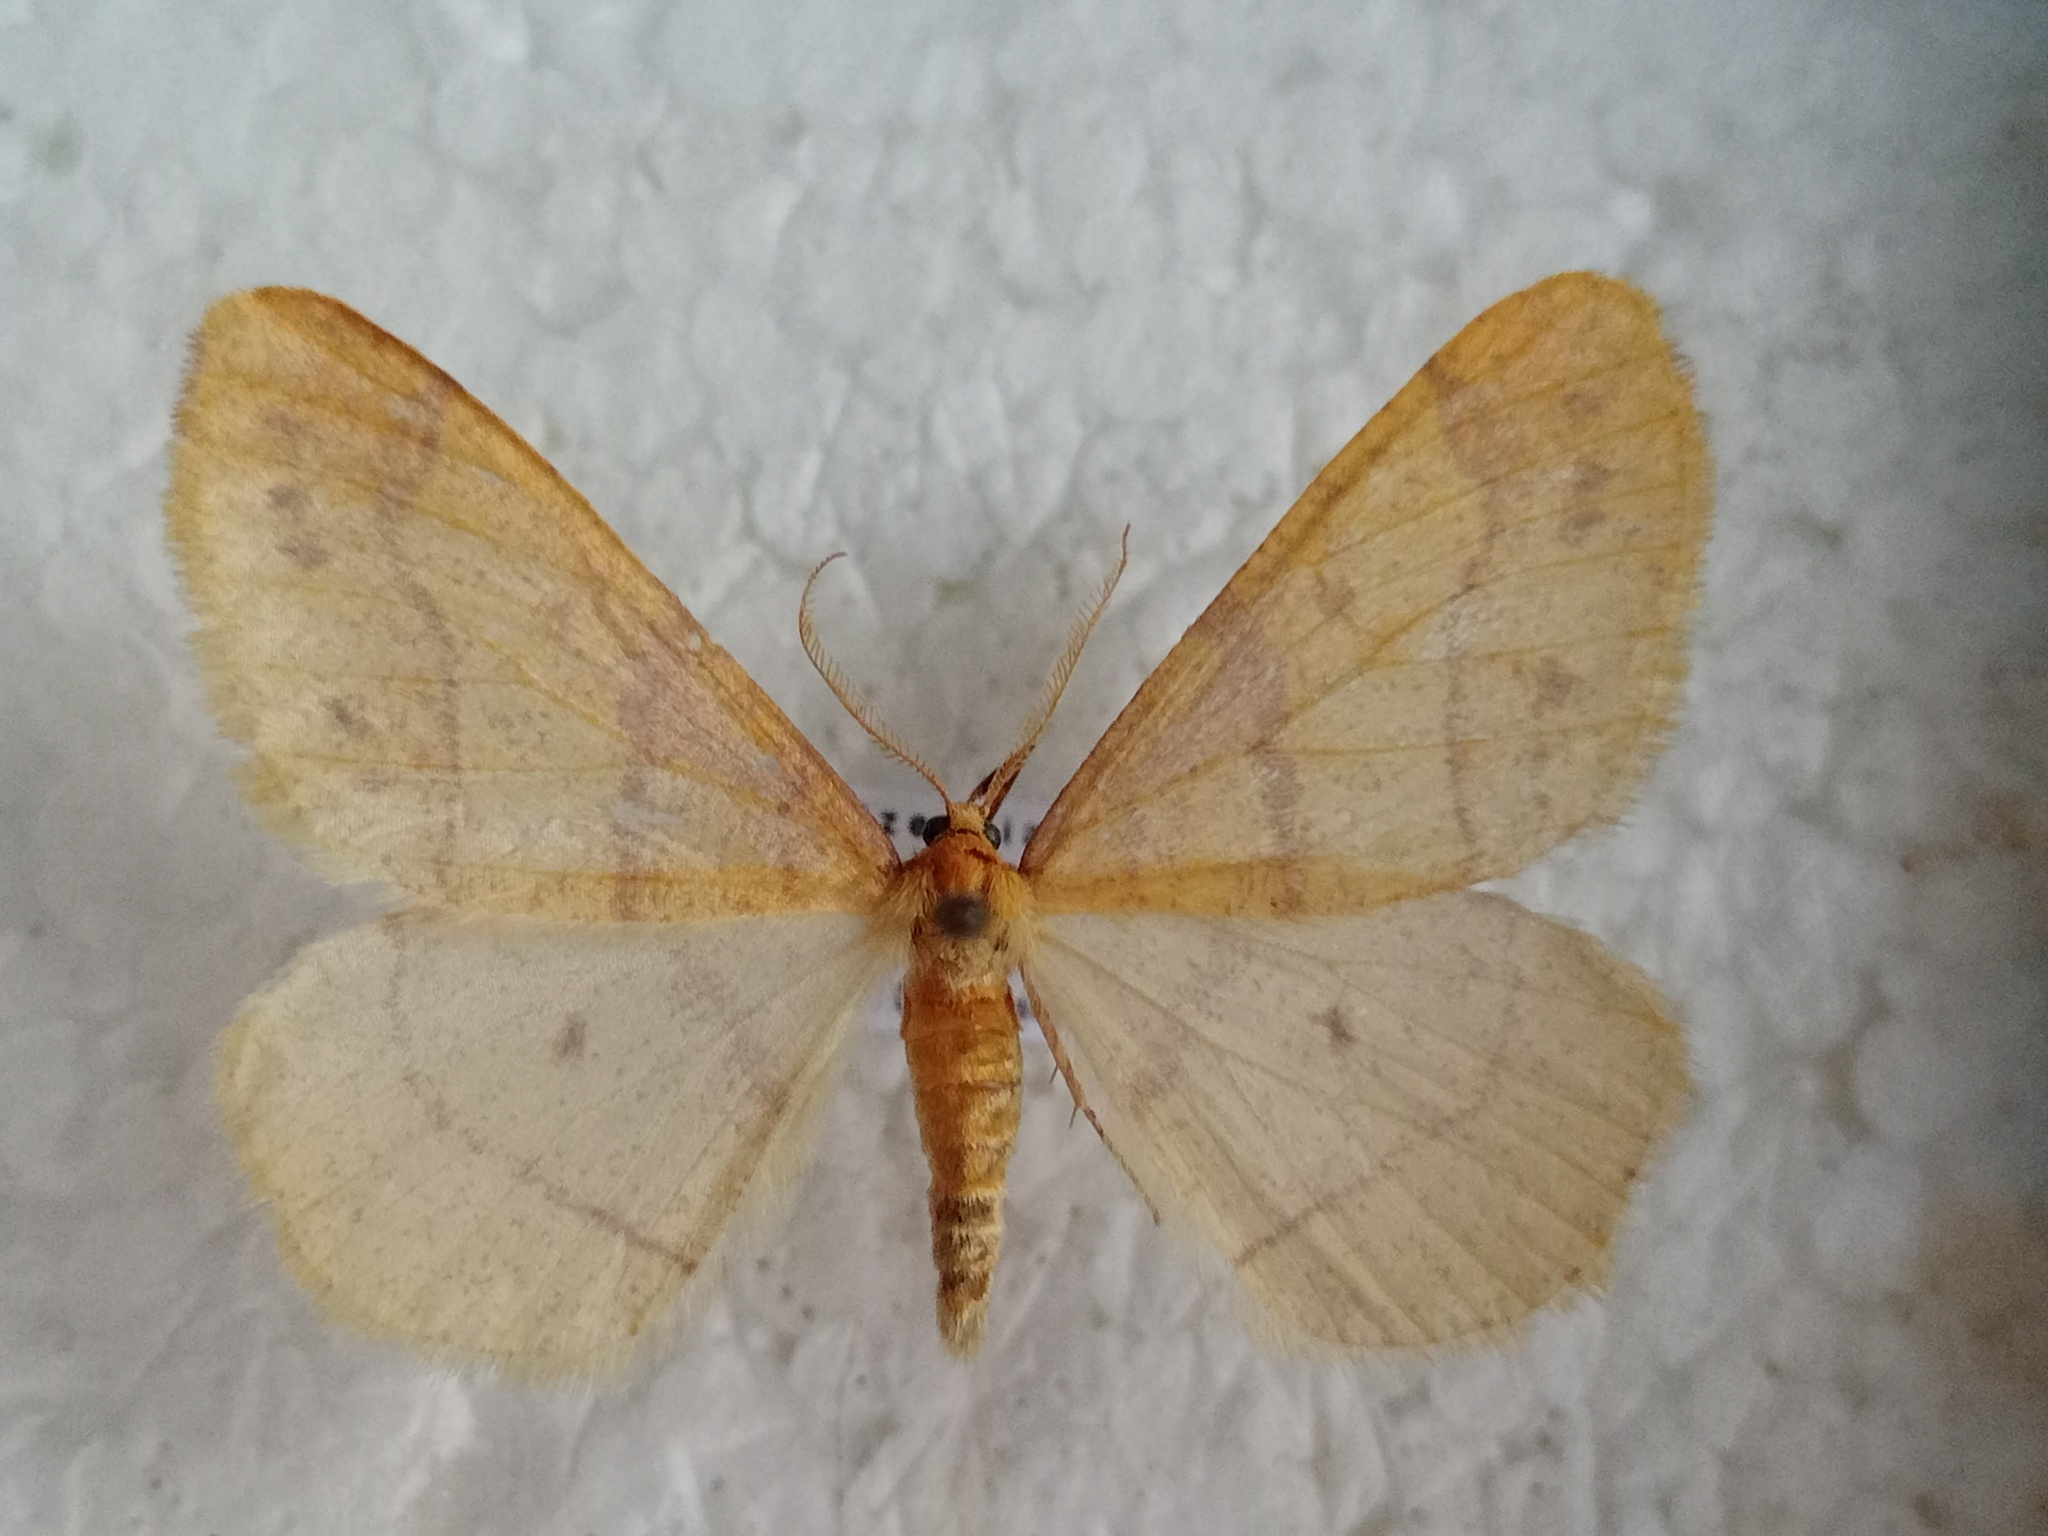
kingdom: Animalia
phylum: Arthropoda
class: Insecta
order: Lepidoptera
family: Geometridae
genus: Agriopis
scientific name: Agriopis aurantiaria
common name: Scarce umber
